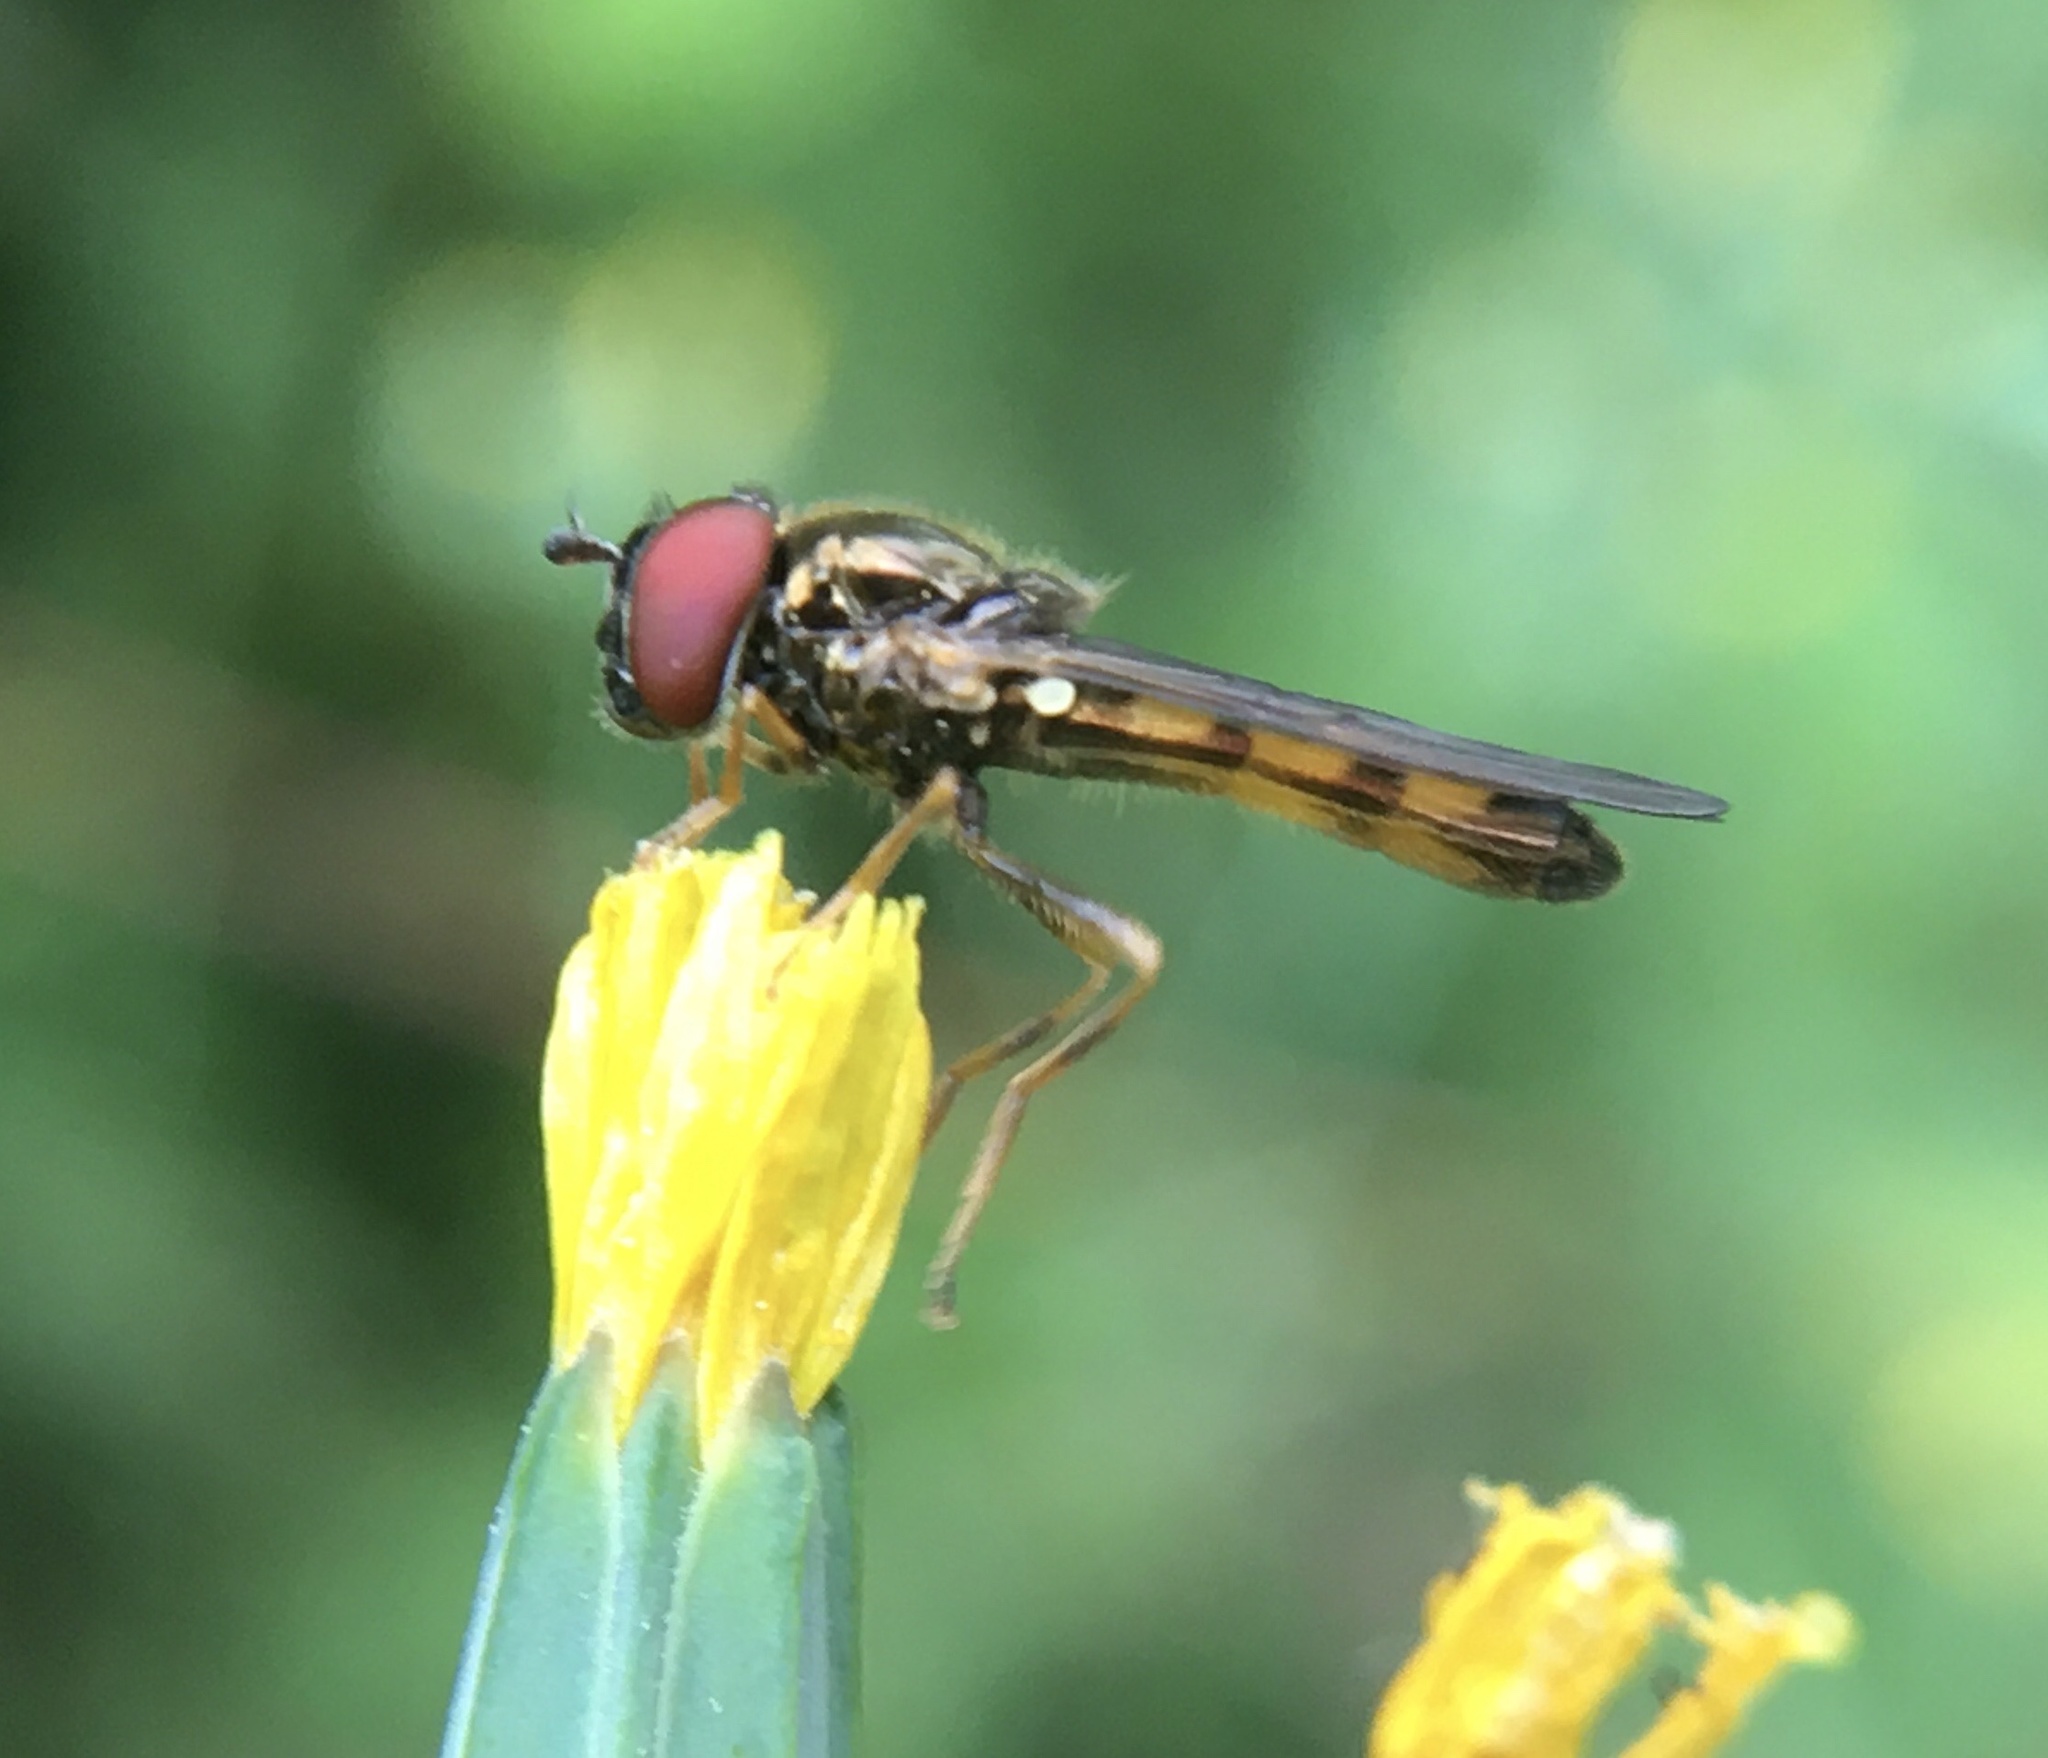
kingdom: Animalia
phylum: Arthropoda
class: Insecta
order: Diptera
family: Syrphidae
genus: Melanostoma
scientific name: Melanostoma
